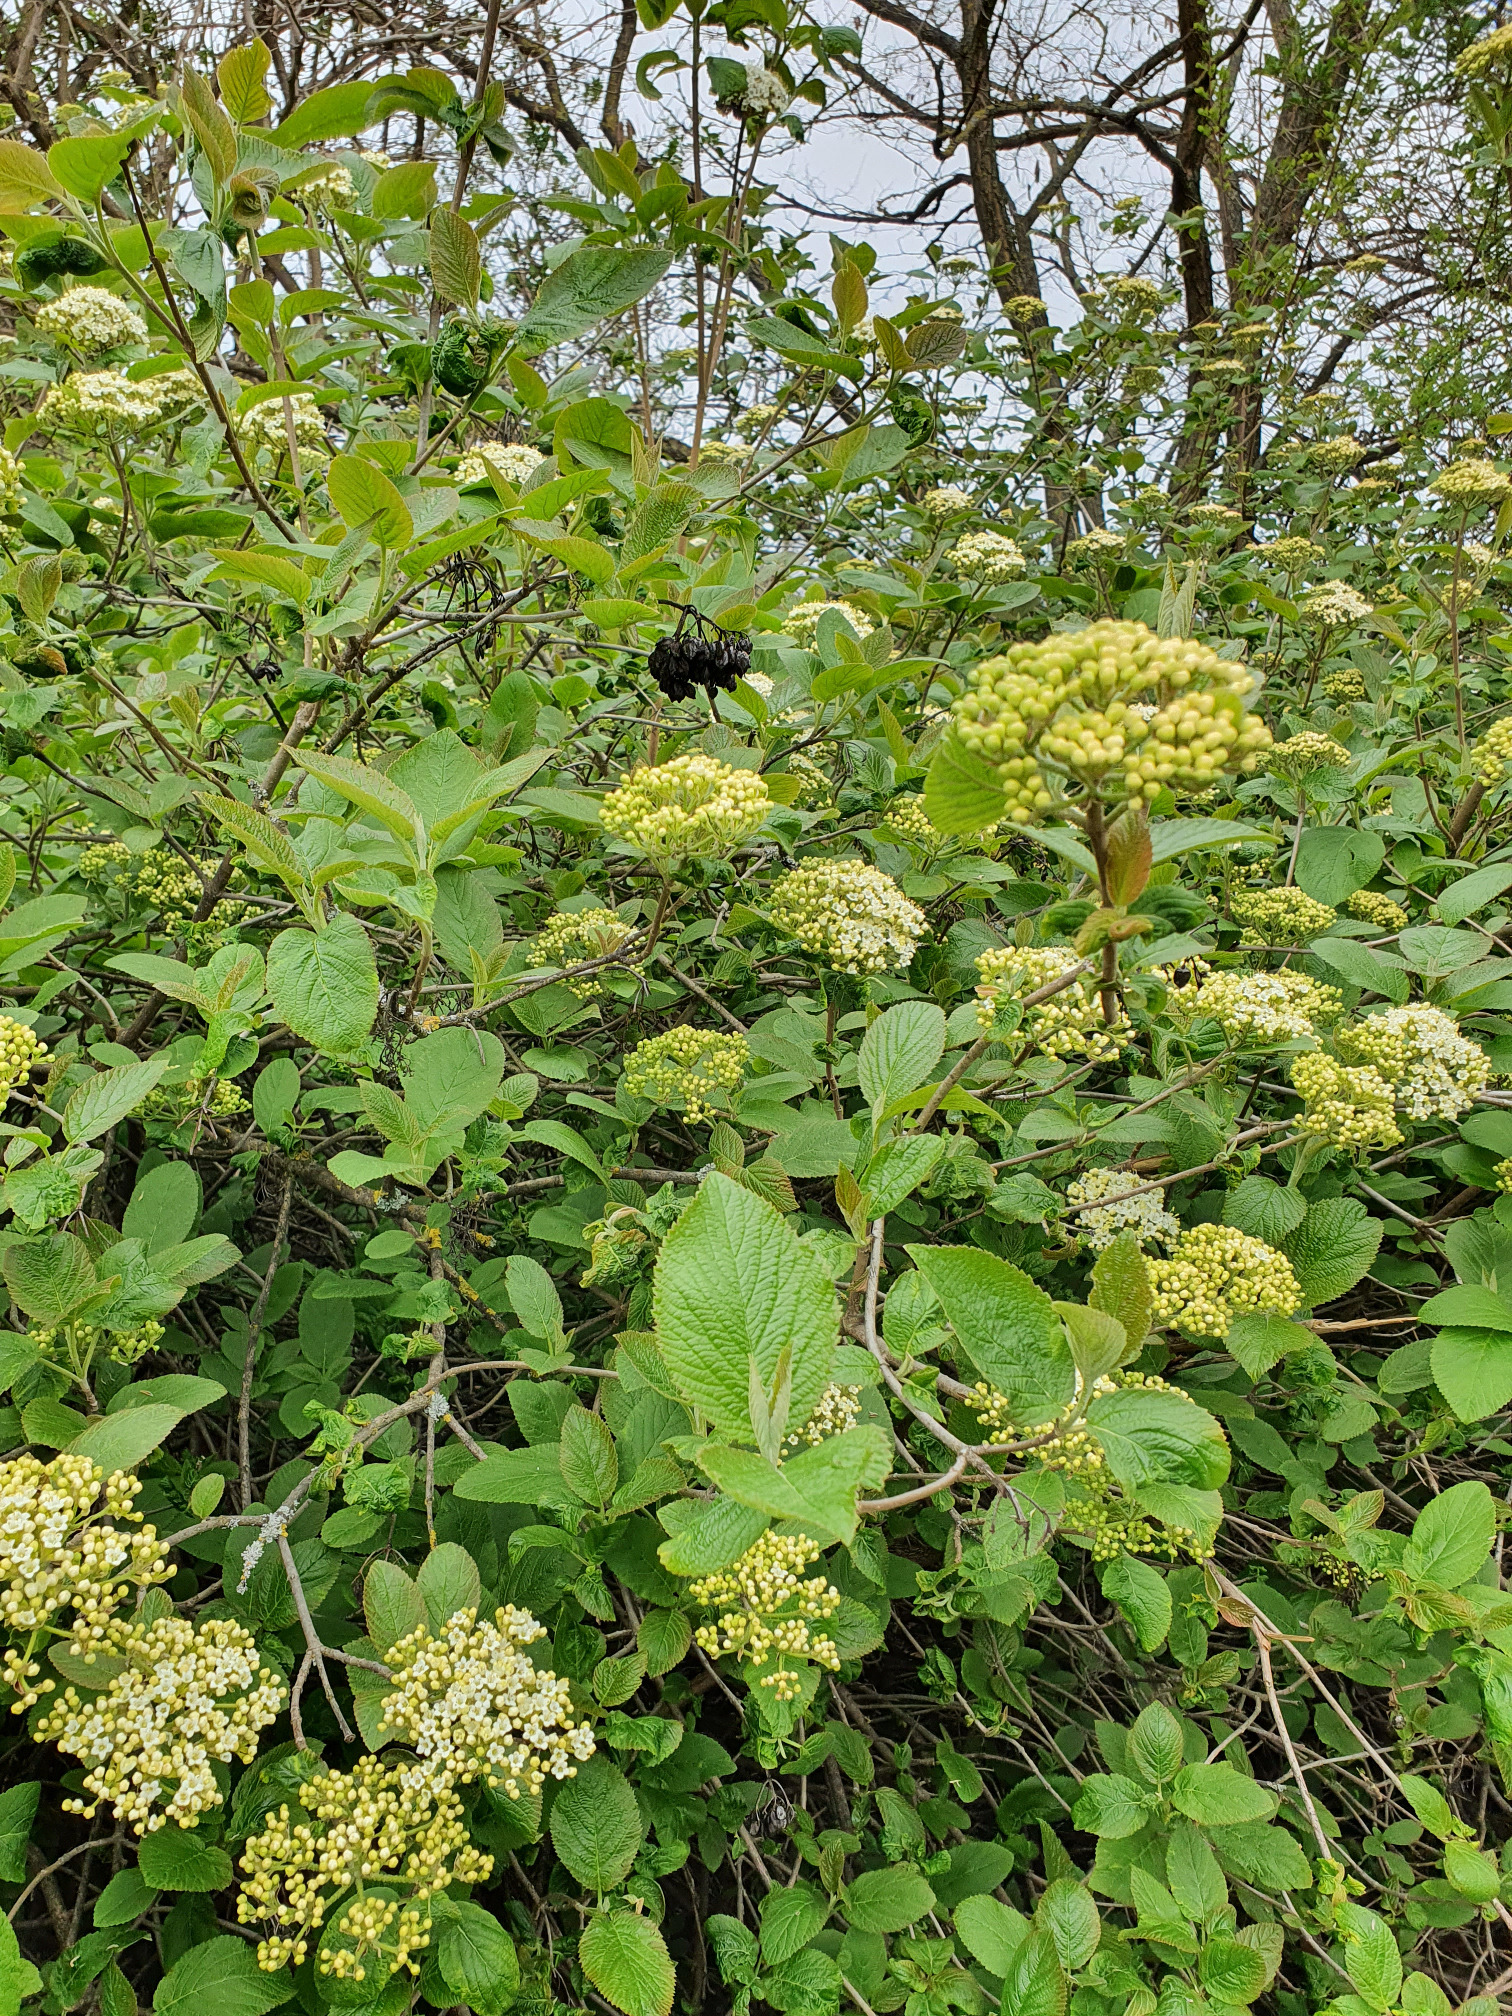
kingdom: Plantae
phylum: Tracheophyta
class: Magnoliopsida
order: Dipsacales
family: Viburnaceae
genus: Viburnum
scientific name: Viburnum lantana
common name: Wayfaring tree
